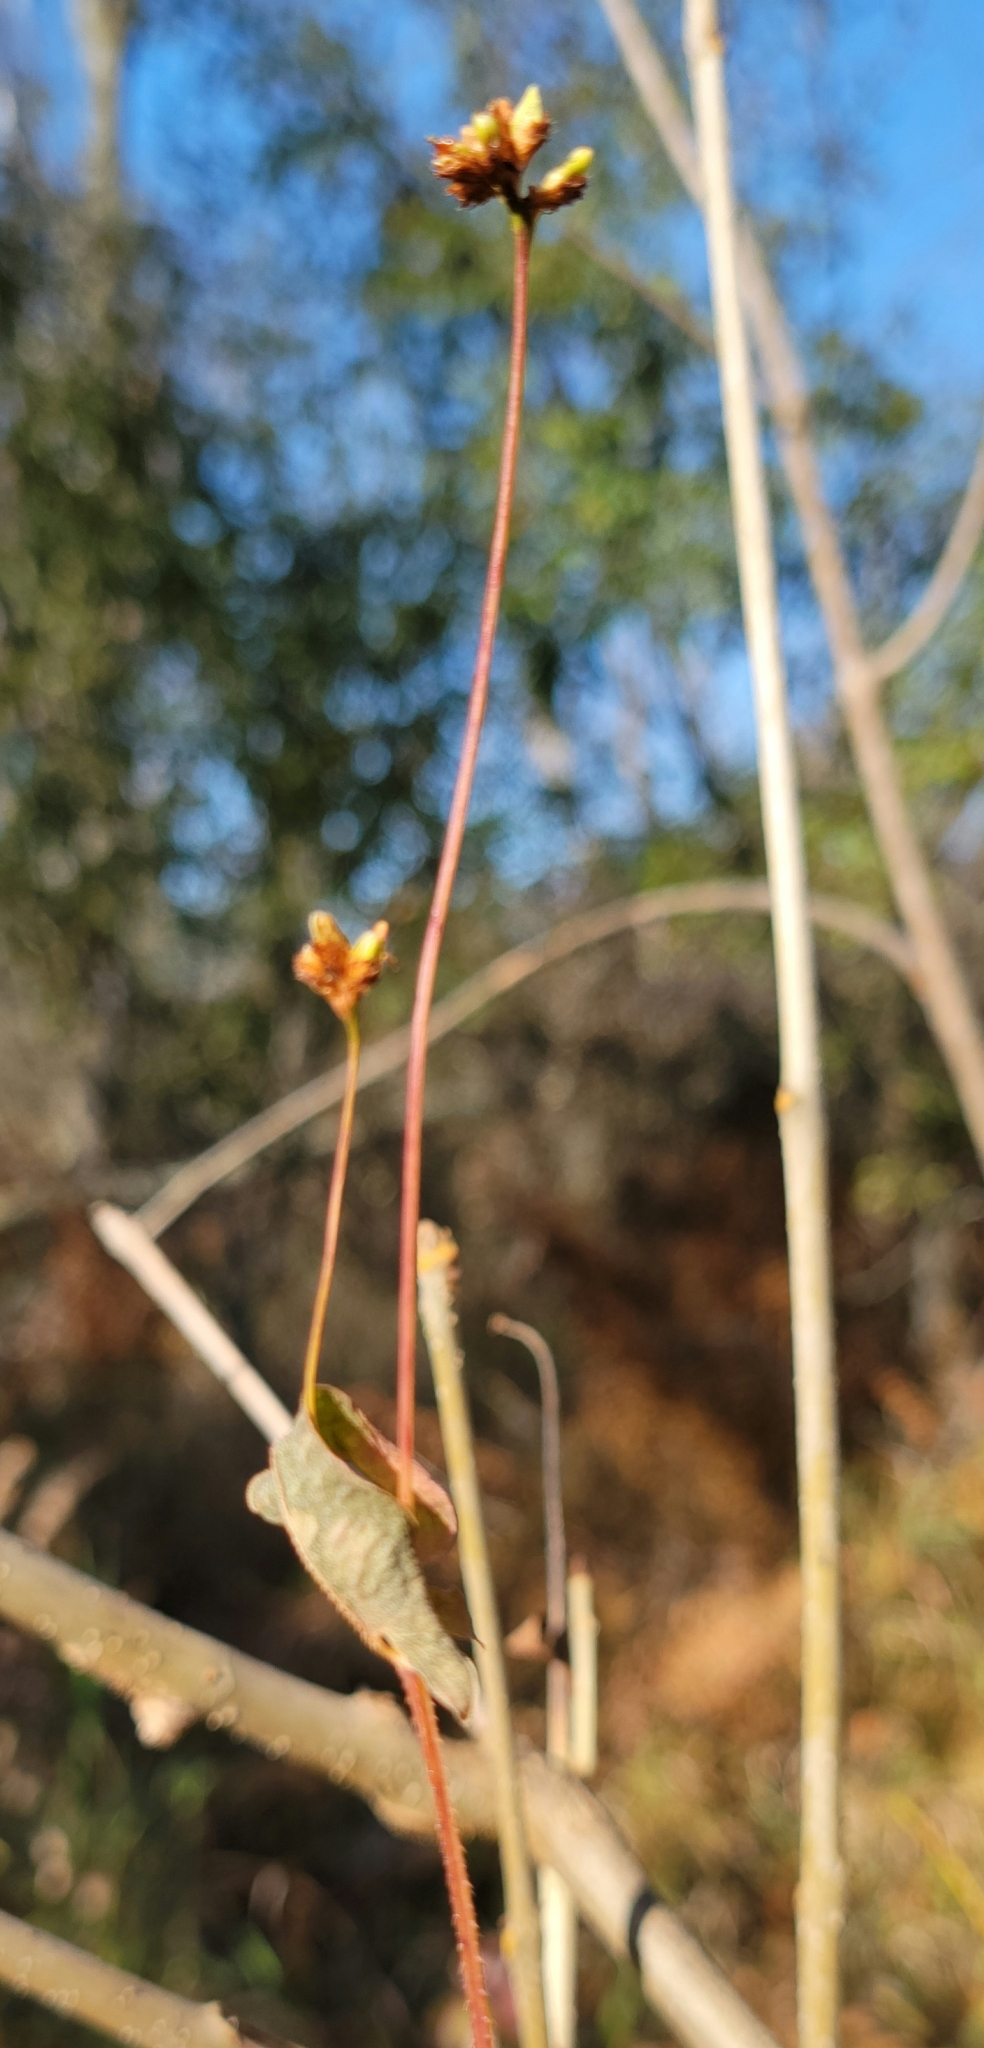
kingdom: Plantae
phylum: Tracheophyta
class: Magnoliopsida
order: Caryophyllales
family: Polygonaceae
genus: Persicaria
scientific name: Persicaria sagittata
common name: American tearthumb
